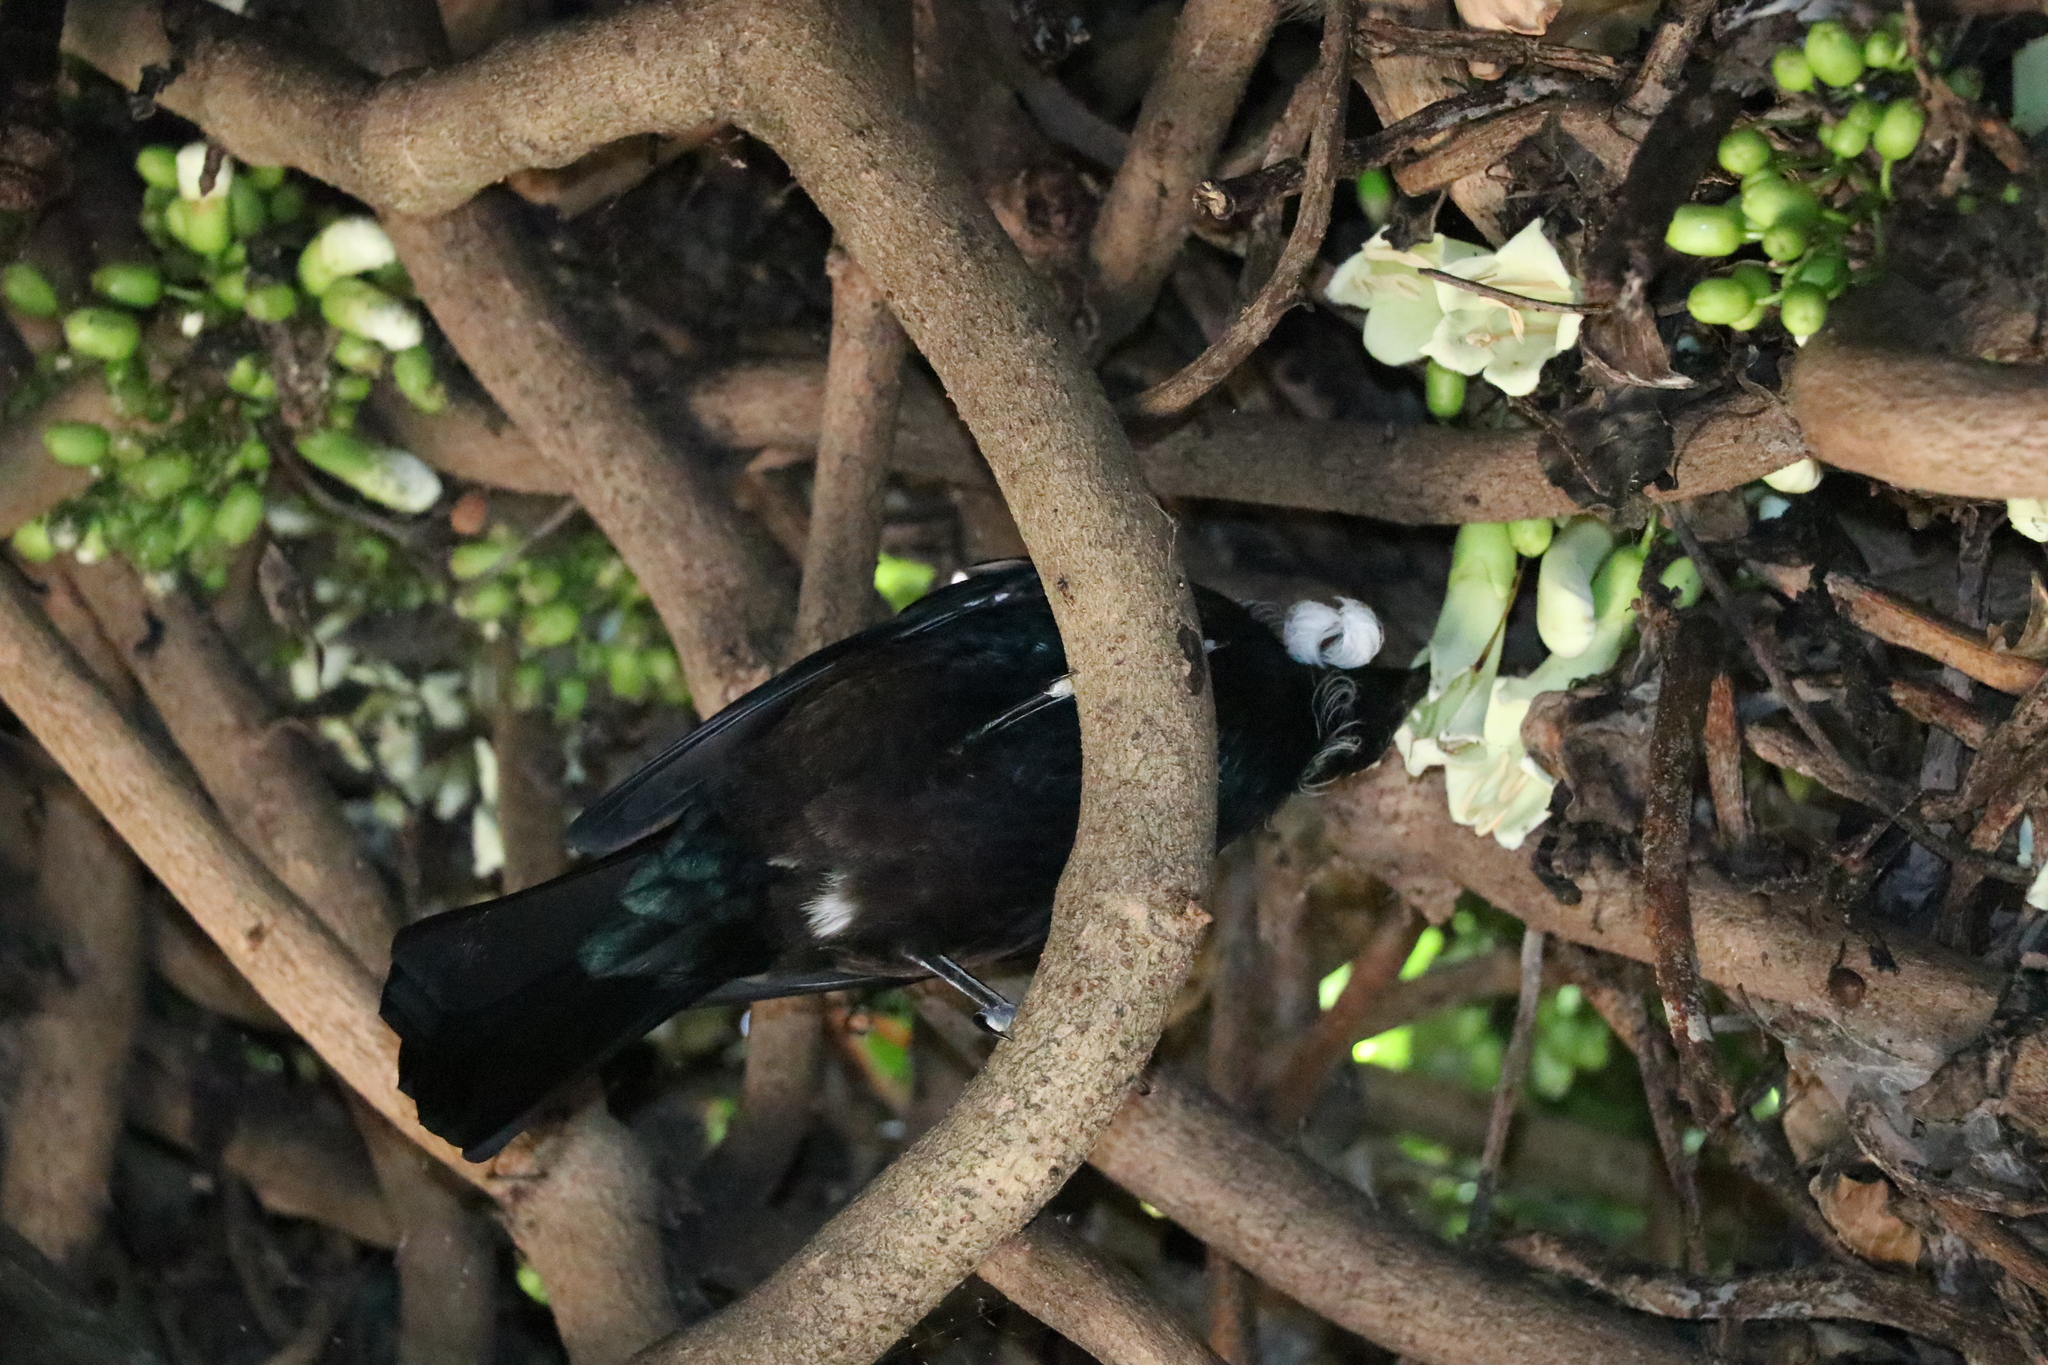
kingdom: Animalia
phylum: Chordata
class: Aves
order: Passeriformes
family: Meliphagidae
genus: Prosthemadera
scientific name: Prosthemadera novaeseelandiae
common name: Tui
